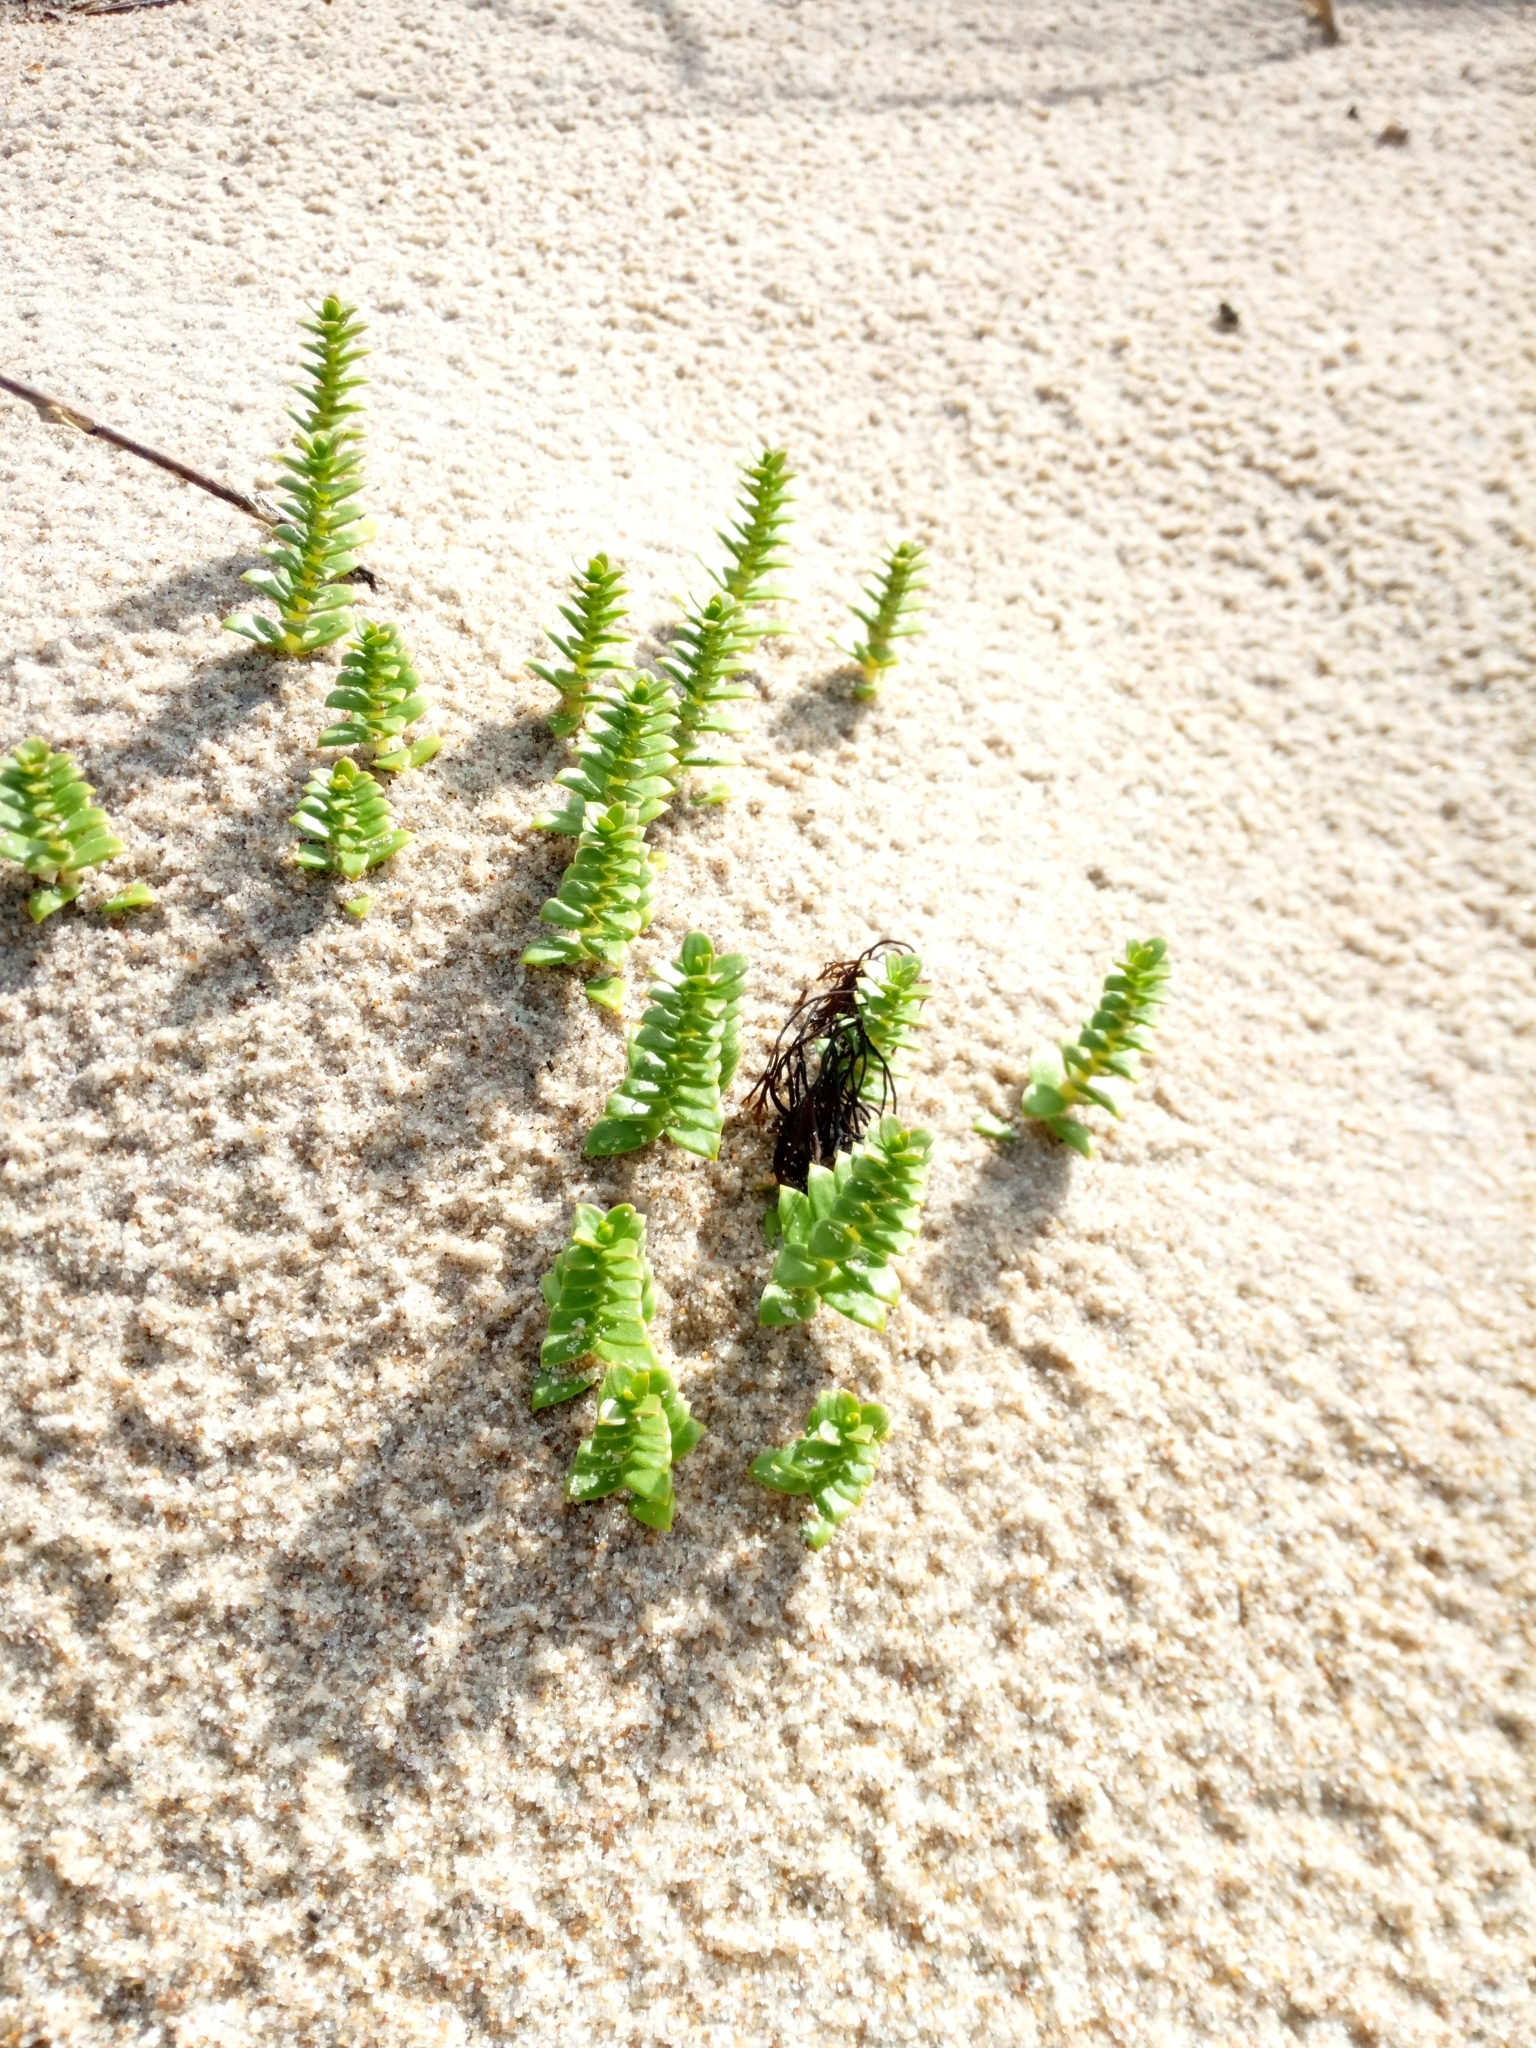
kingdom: Plantae
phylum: Tracheophyta
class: Magnoliopsida
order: Caryophyllales
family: Caryophyllaceae
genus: Honckenya
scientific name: Honckenya peploides
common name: Sea sandwort
